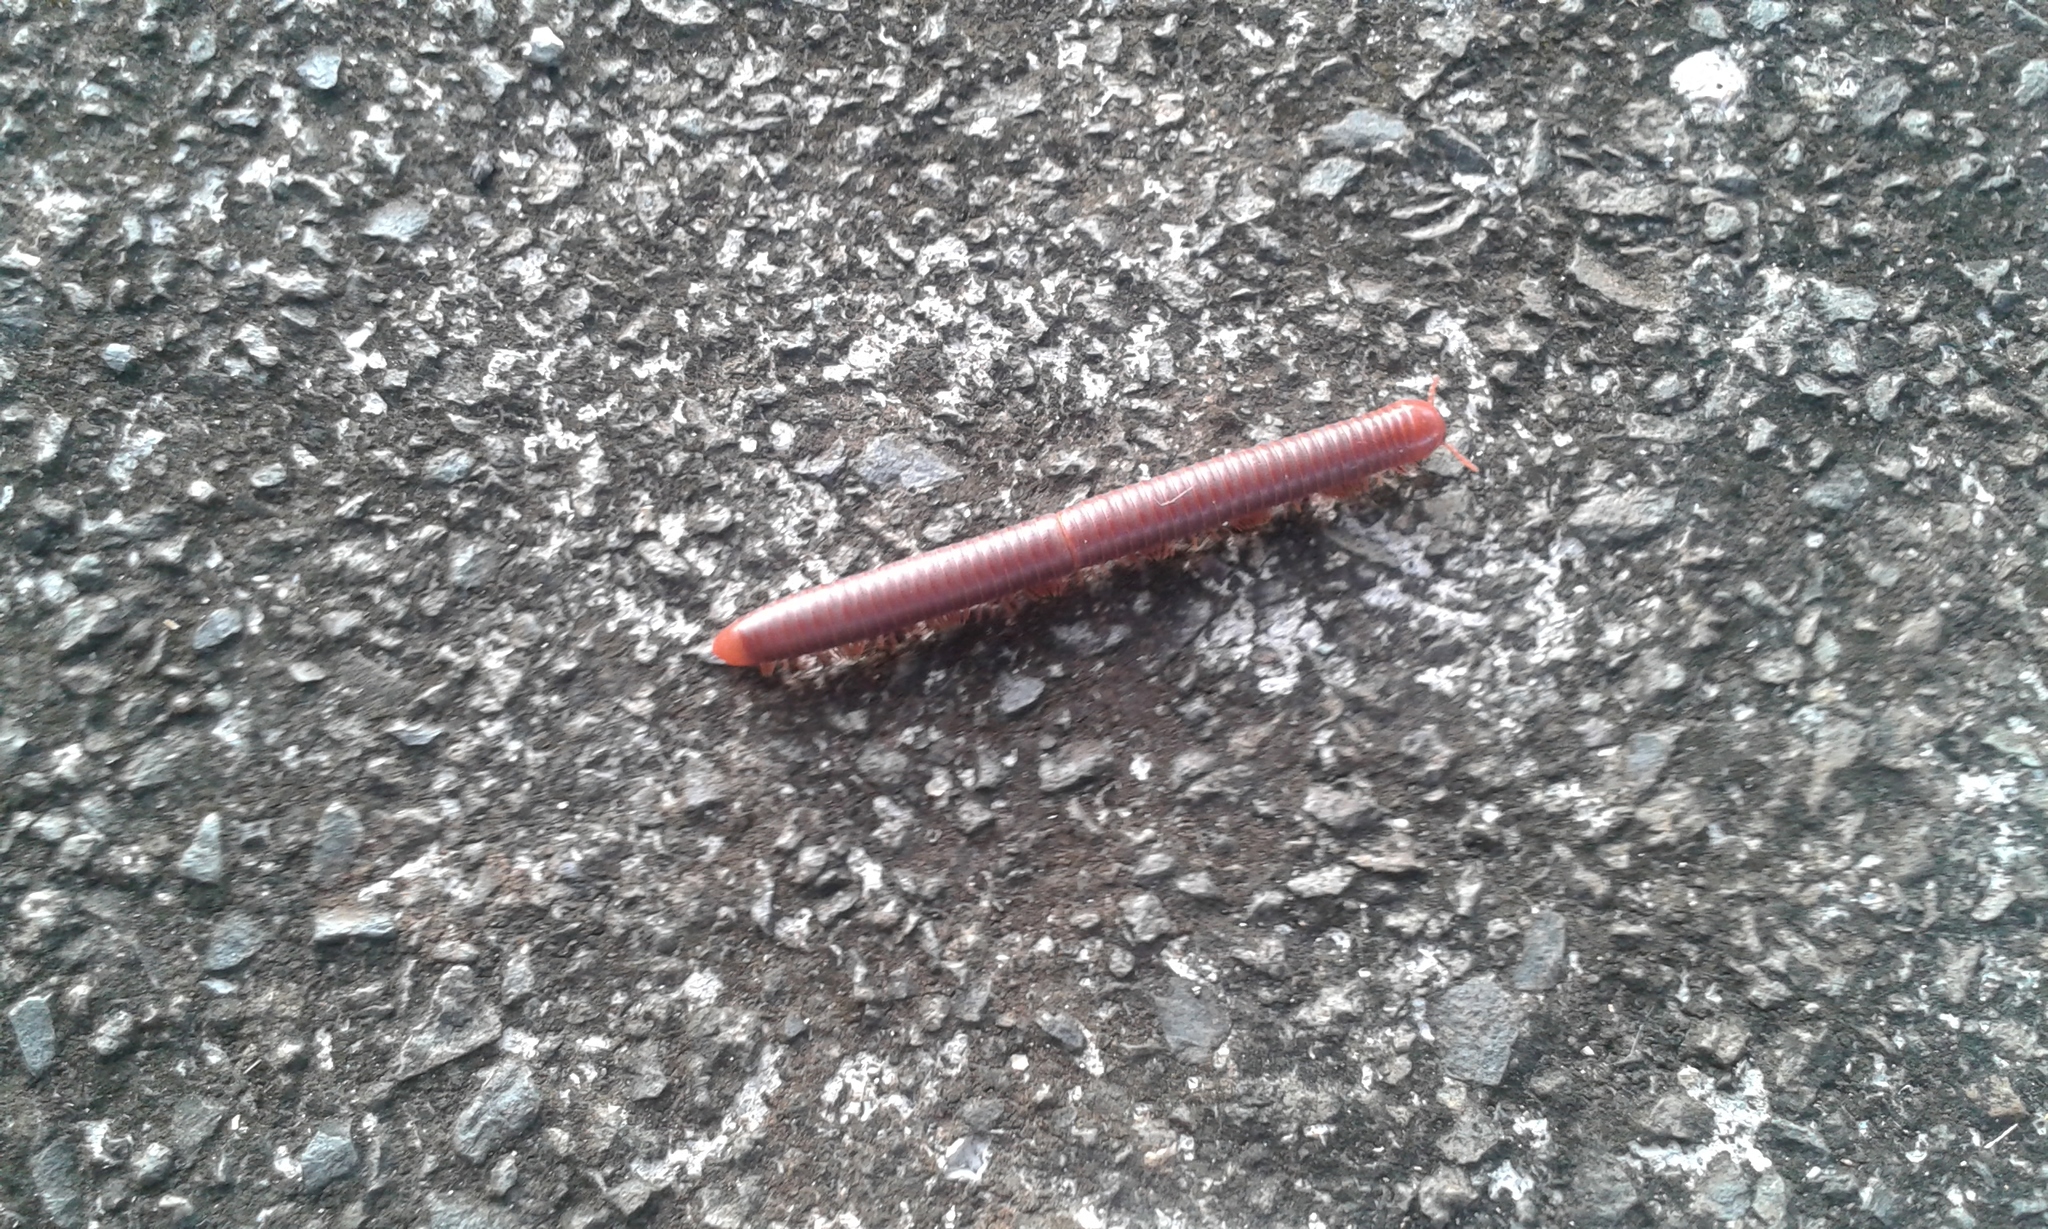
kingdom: Animalia
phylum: Arthropoda
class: Diplopoda
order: Spirobolida
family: Pachybolidae
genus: Trigoniulus
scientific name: Trigoniulus corallinus
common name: Millipede
